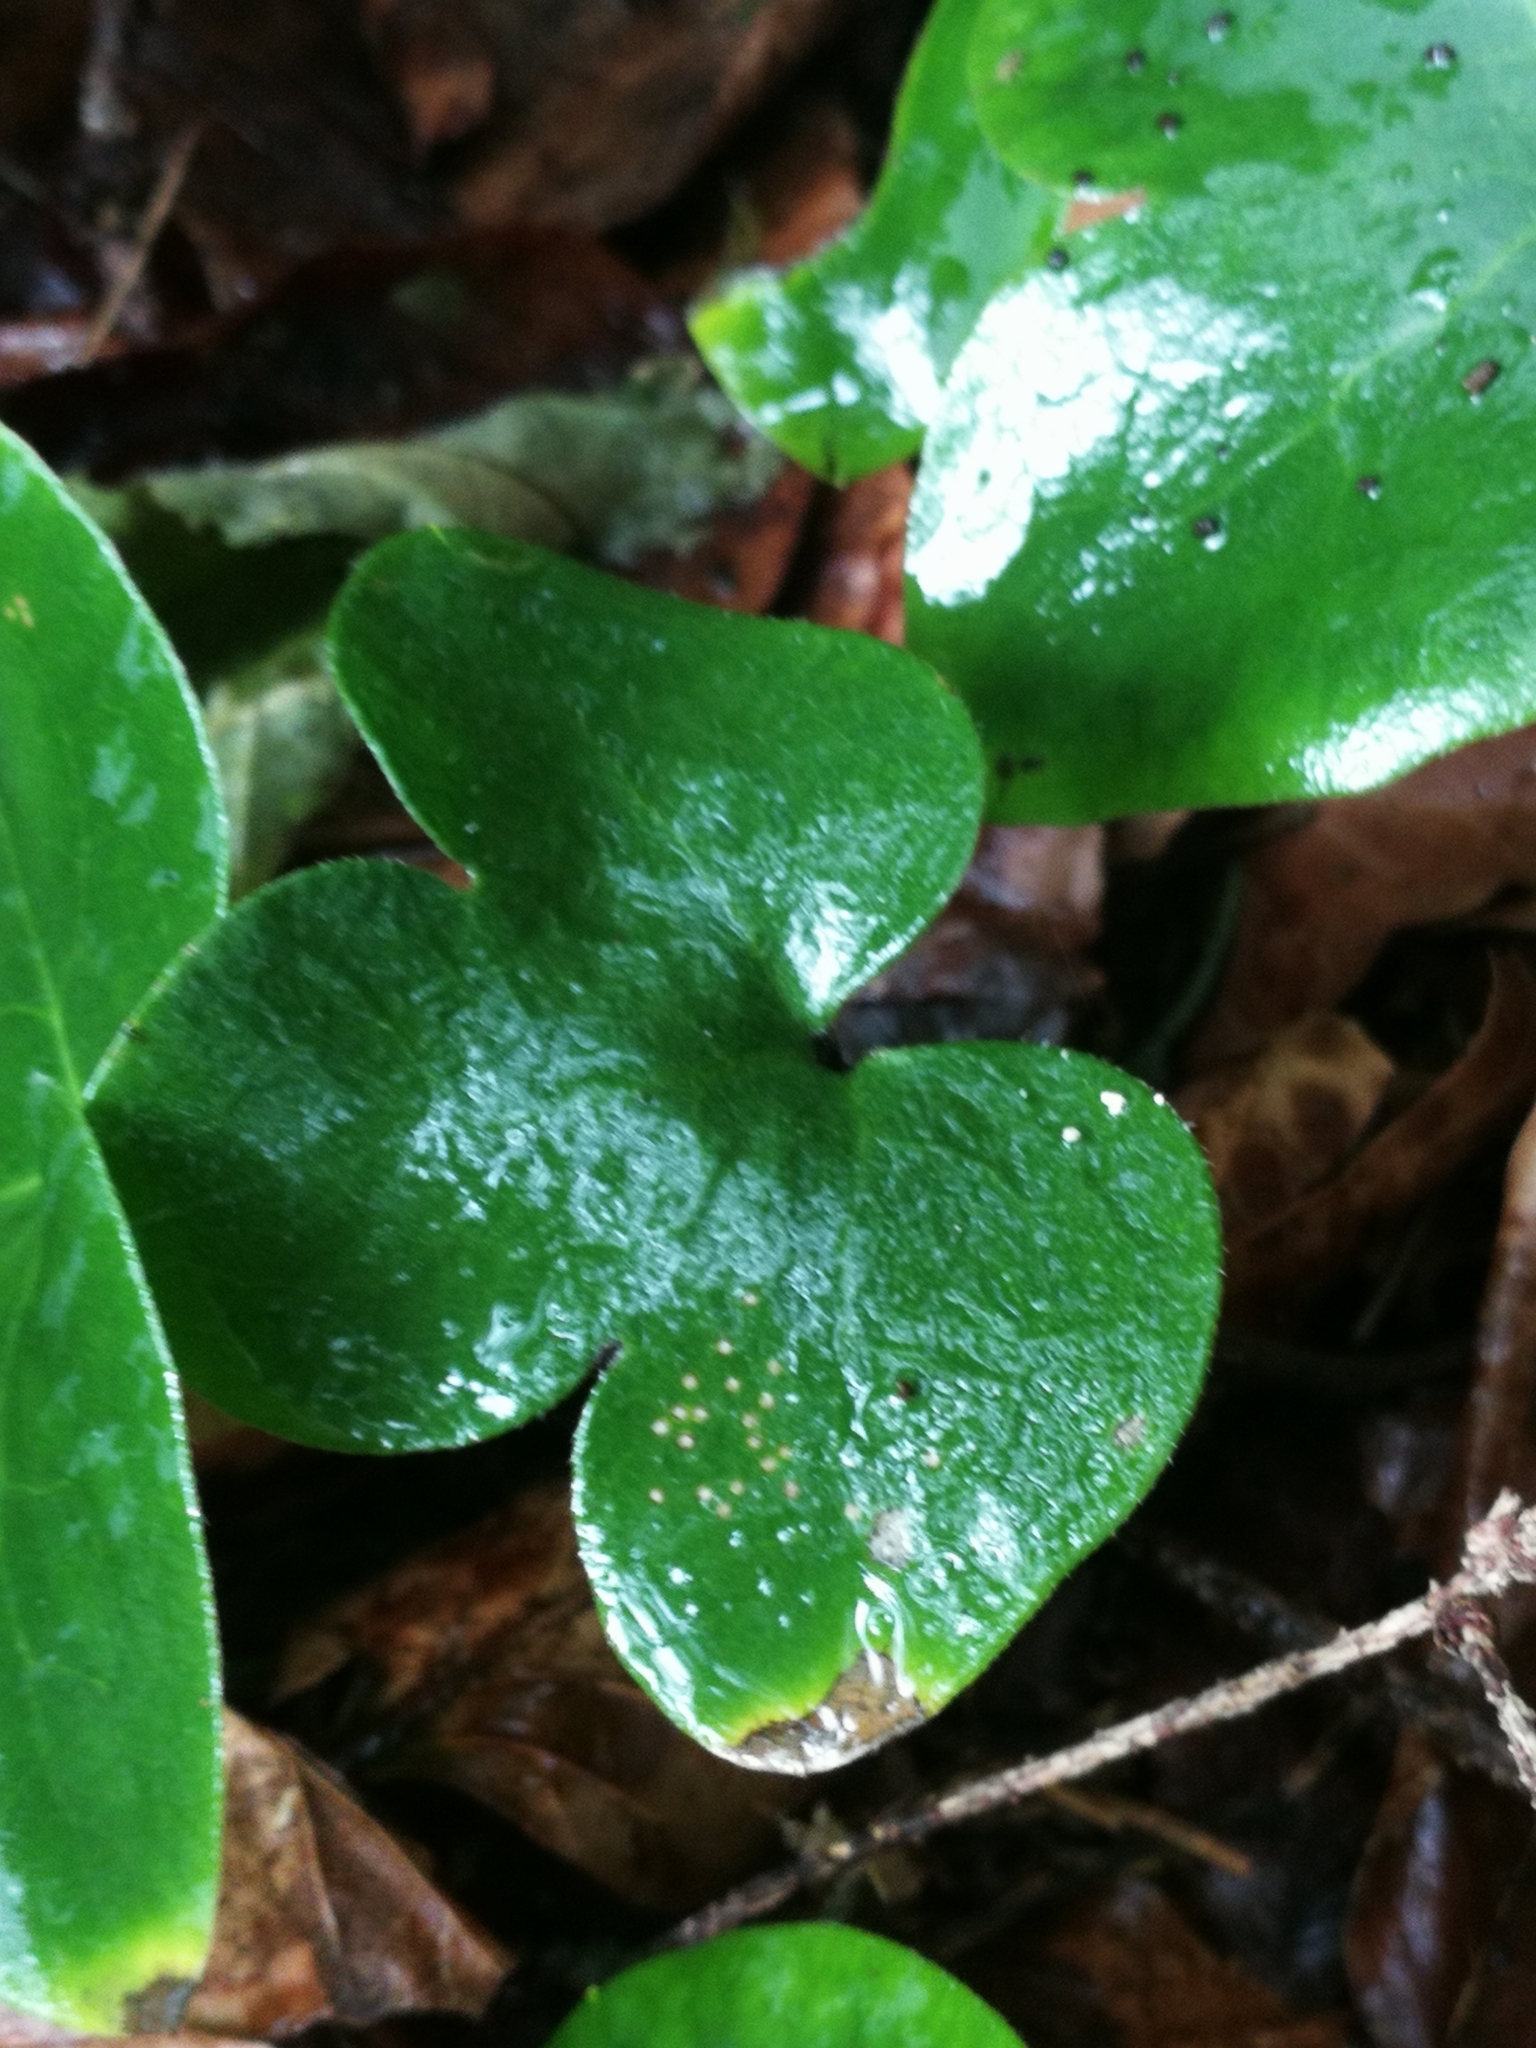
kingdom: Plantae
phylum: Tracheophyta
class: Magnoliopsida
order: Ranunculales
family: Ranunculaceae
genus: Hepatica
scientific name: Hepatica nobilis
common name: Liverleaf
